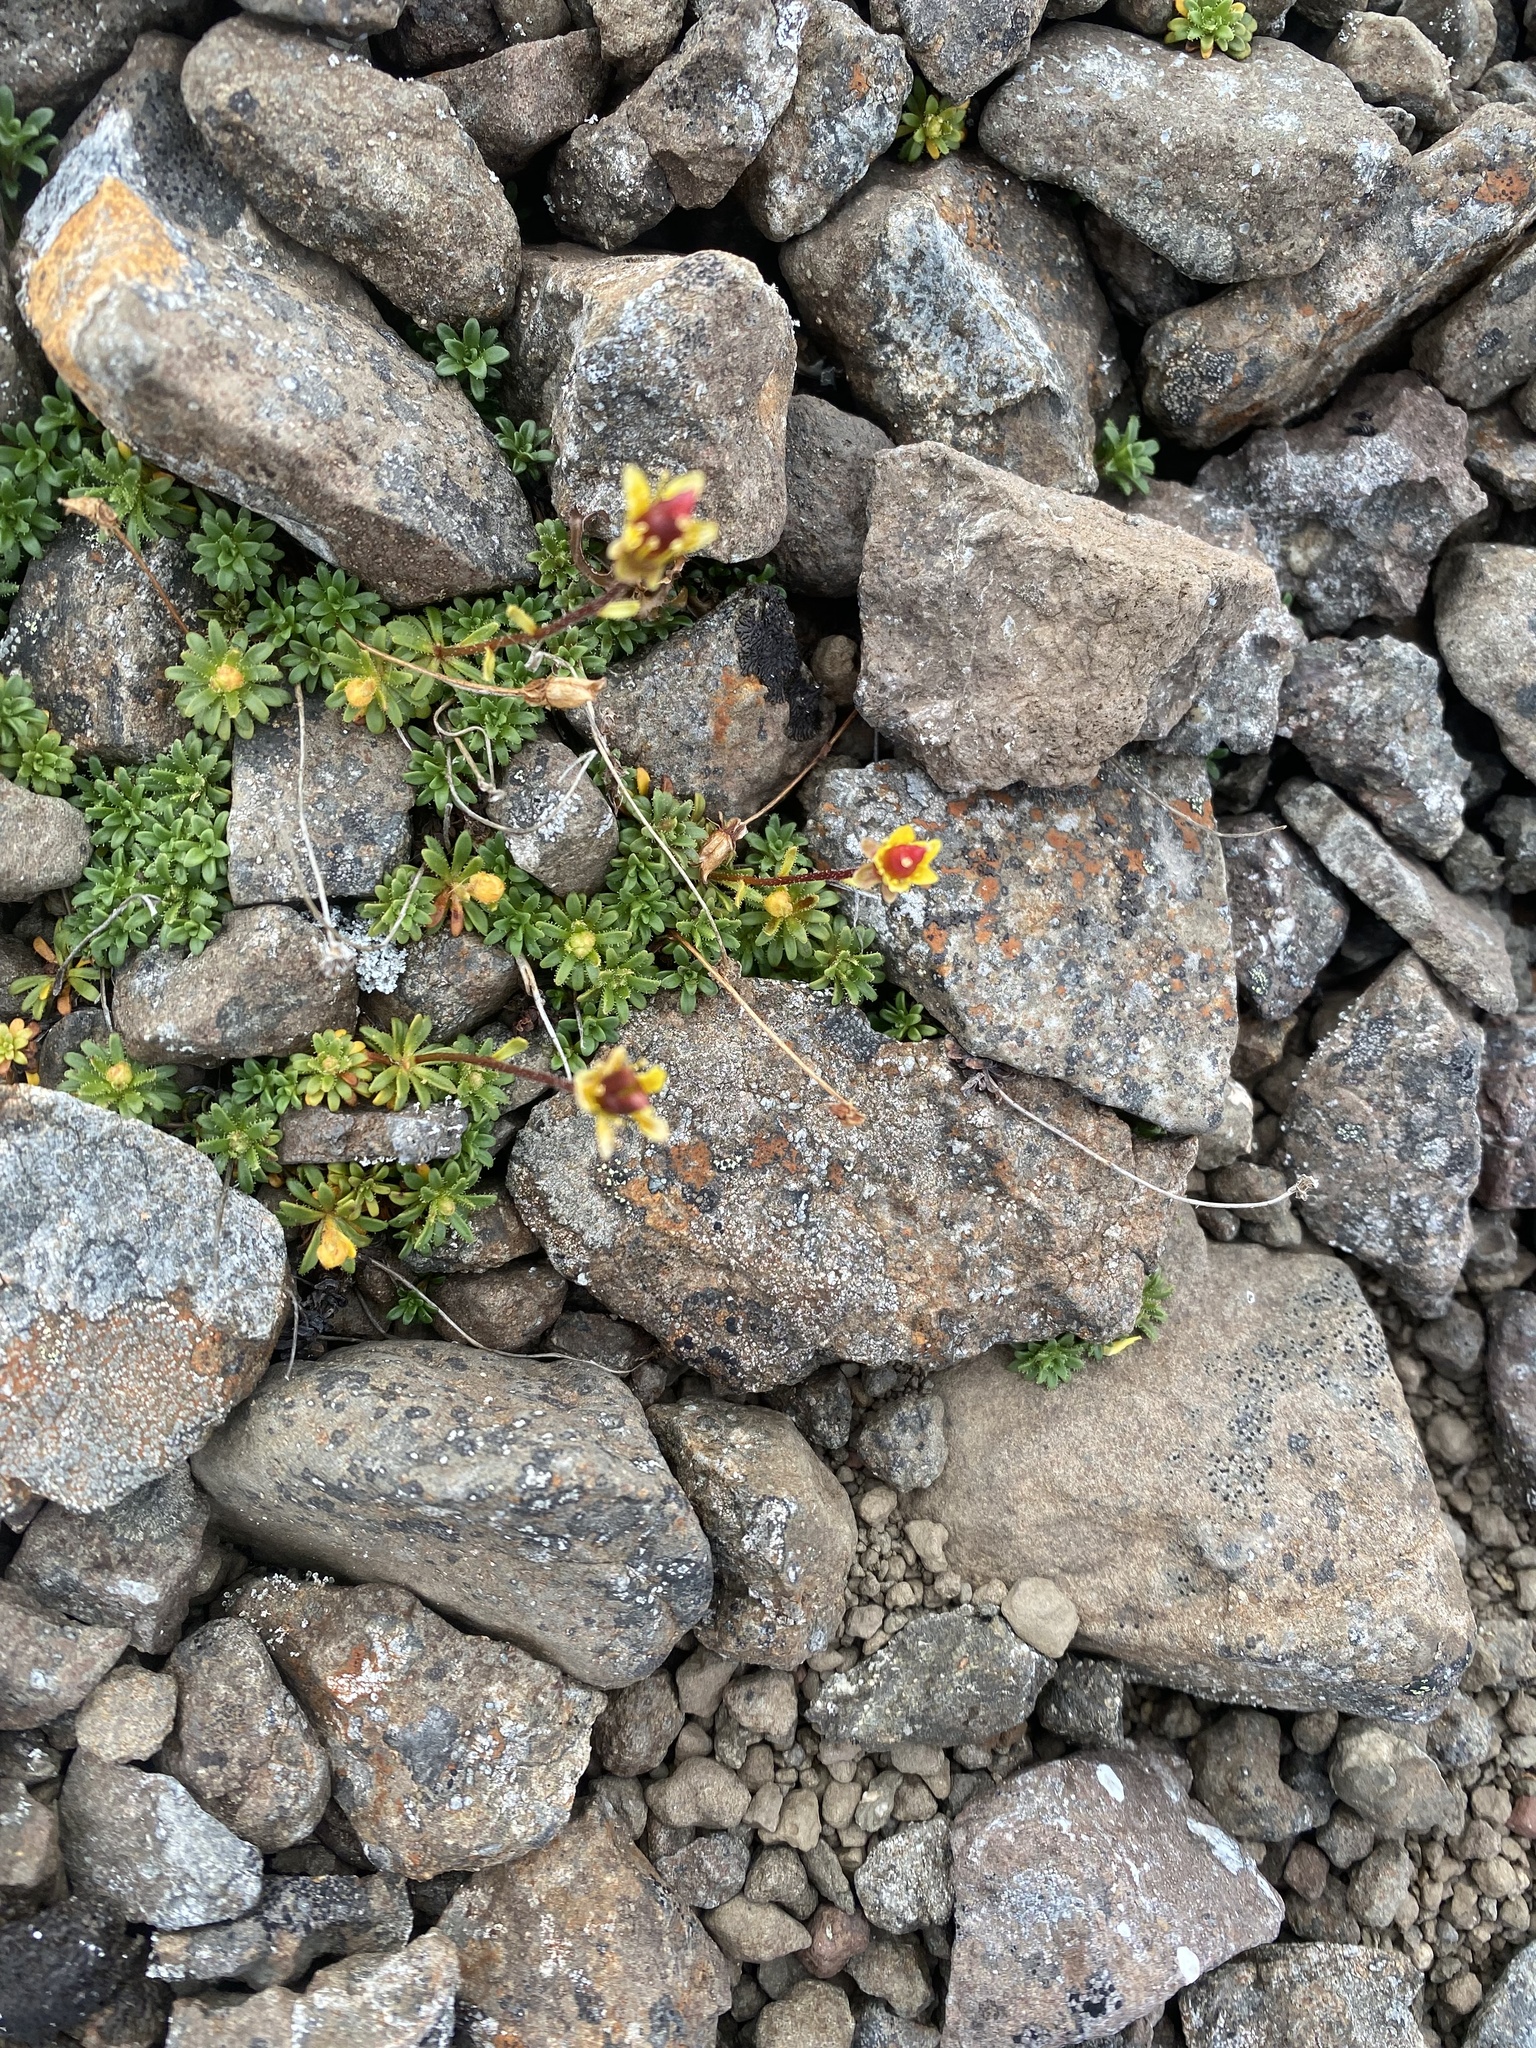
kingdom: Plantae
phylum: Tracheophyta
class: Magnoliopsida
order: Saxifragales
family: Saxifragaceae
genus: Saxifraga
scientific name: Saxifraga serpyllifolia
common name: Thyme-leaved saxifrage
